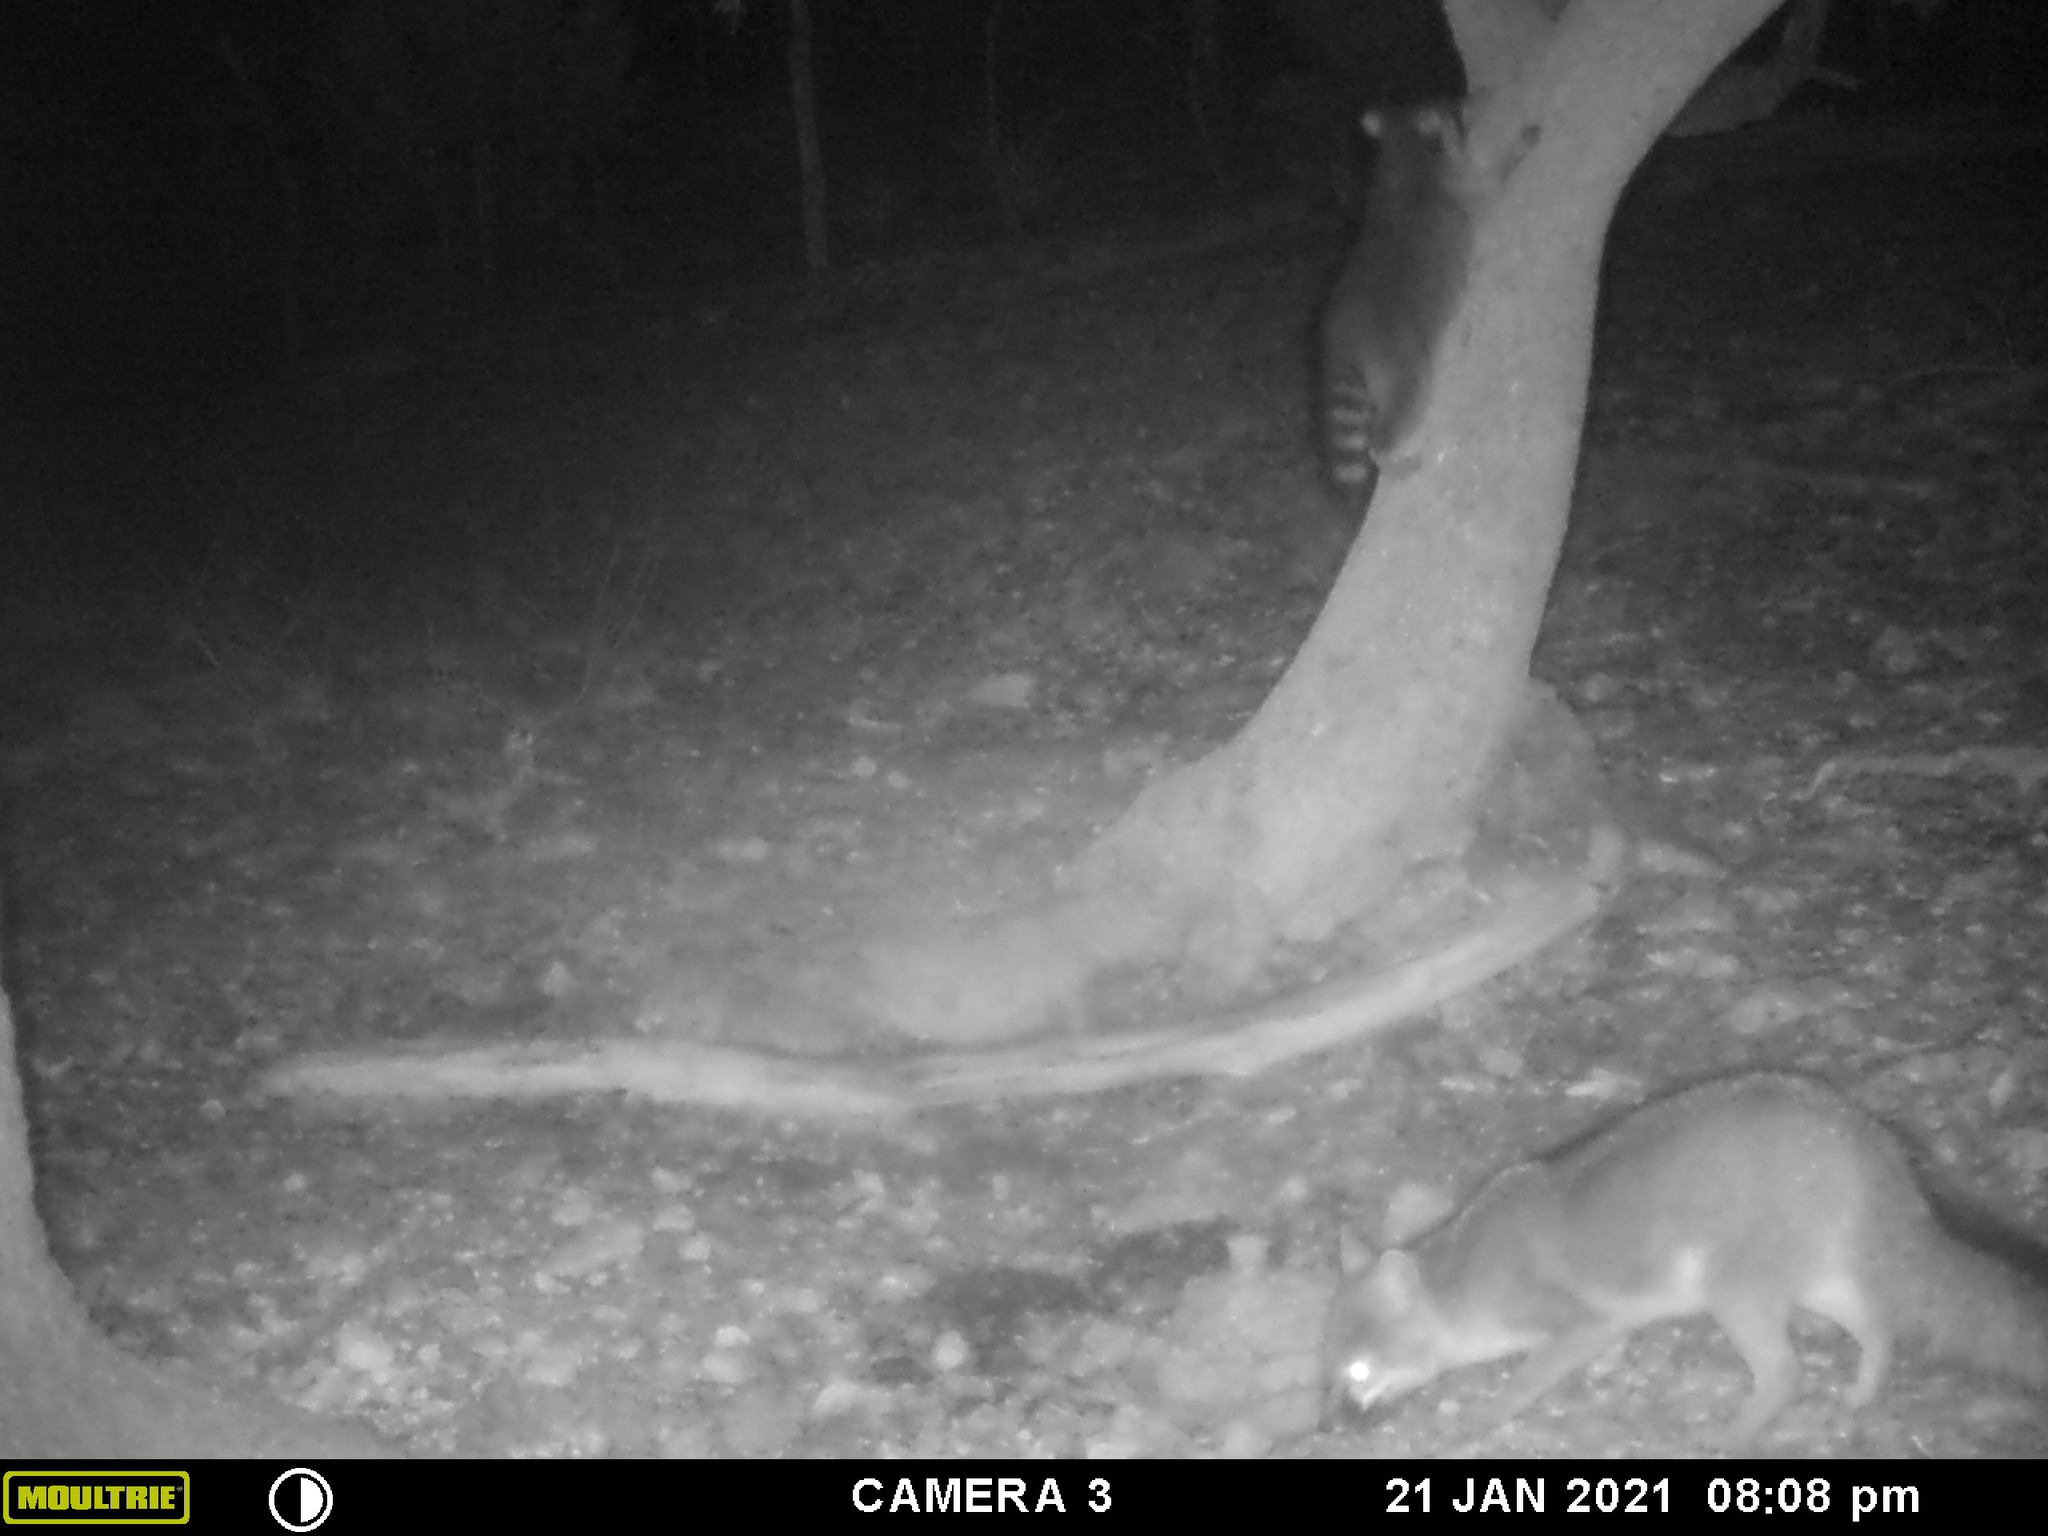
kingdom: Animalia
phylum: Chordata
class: Mammalia
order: Carnivora
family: Canidae
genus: Urocyon
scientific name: Urocyon cinereoargenteus
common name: Gray fox
